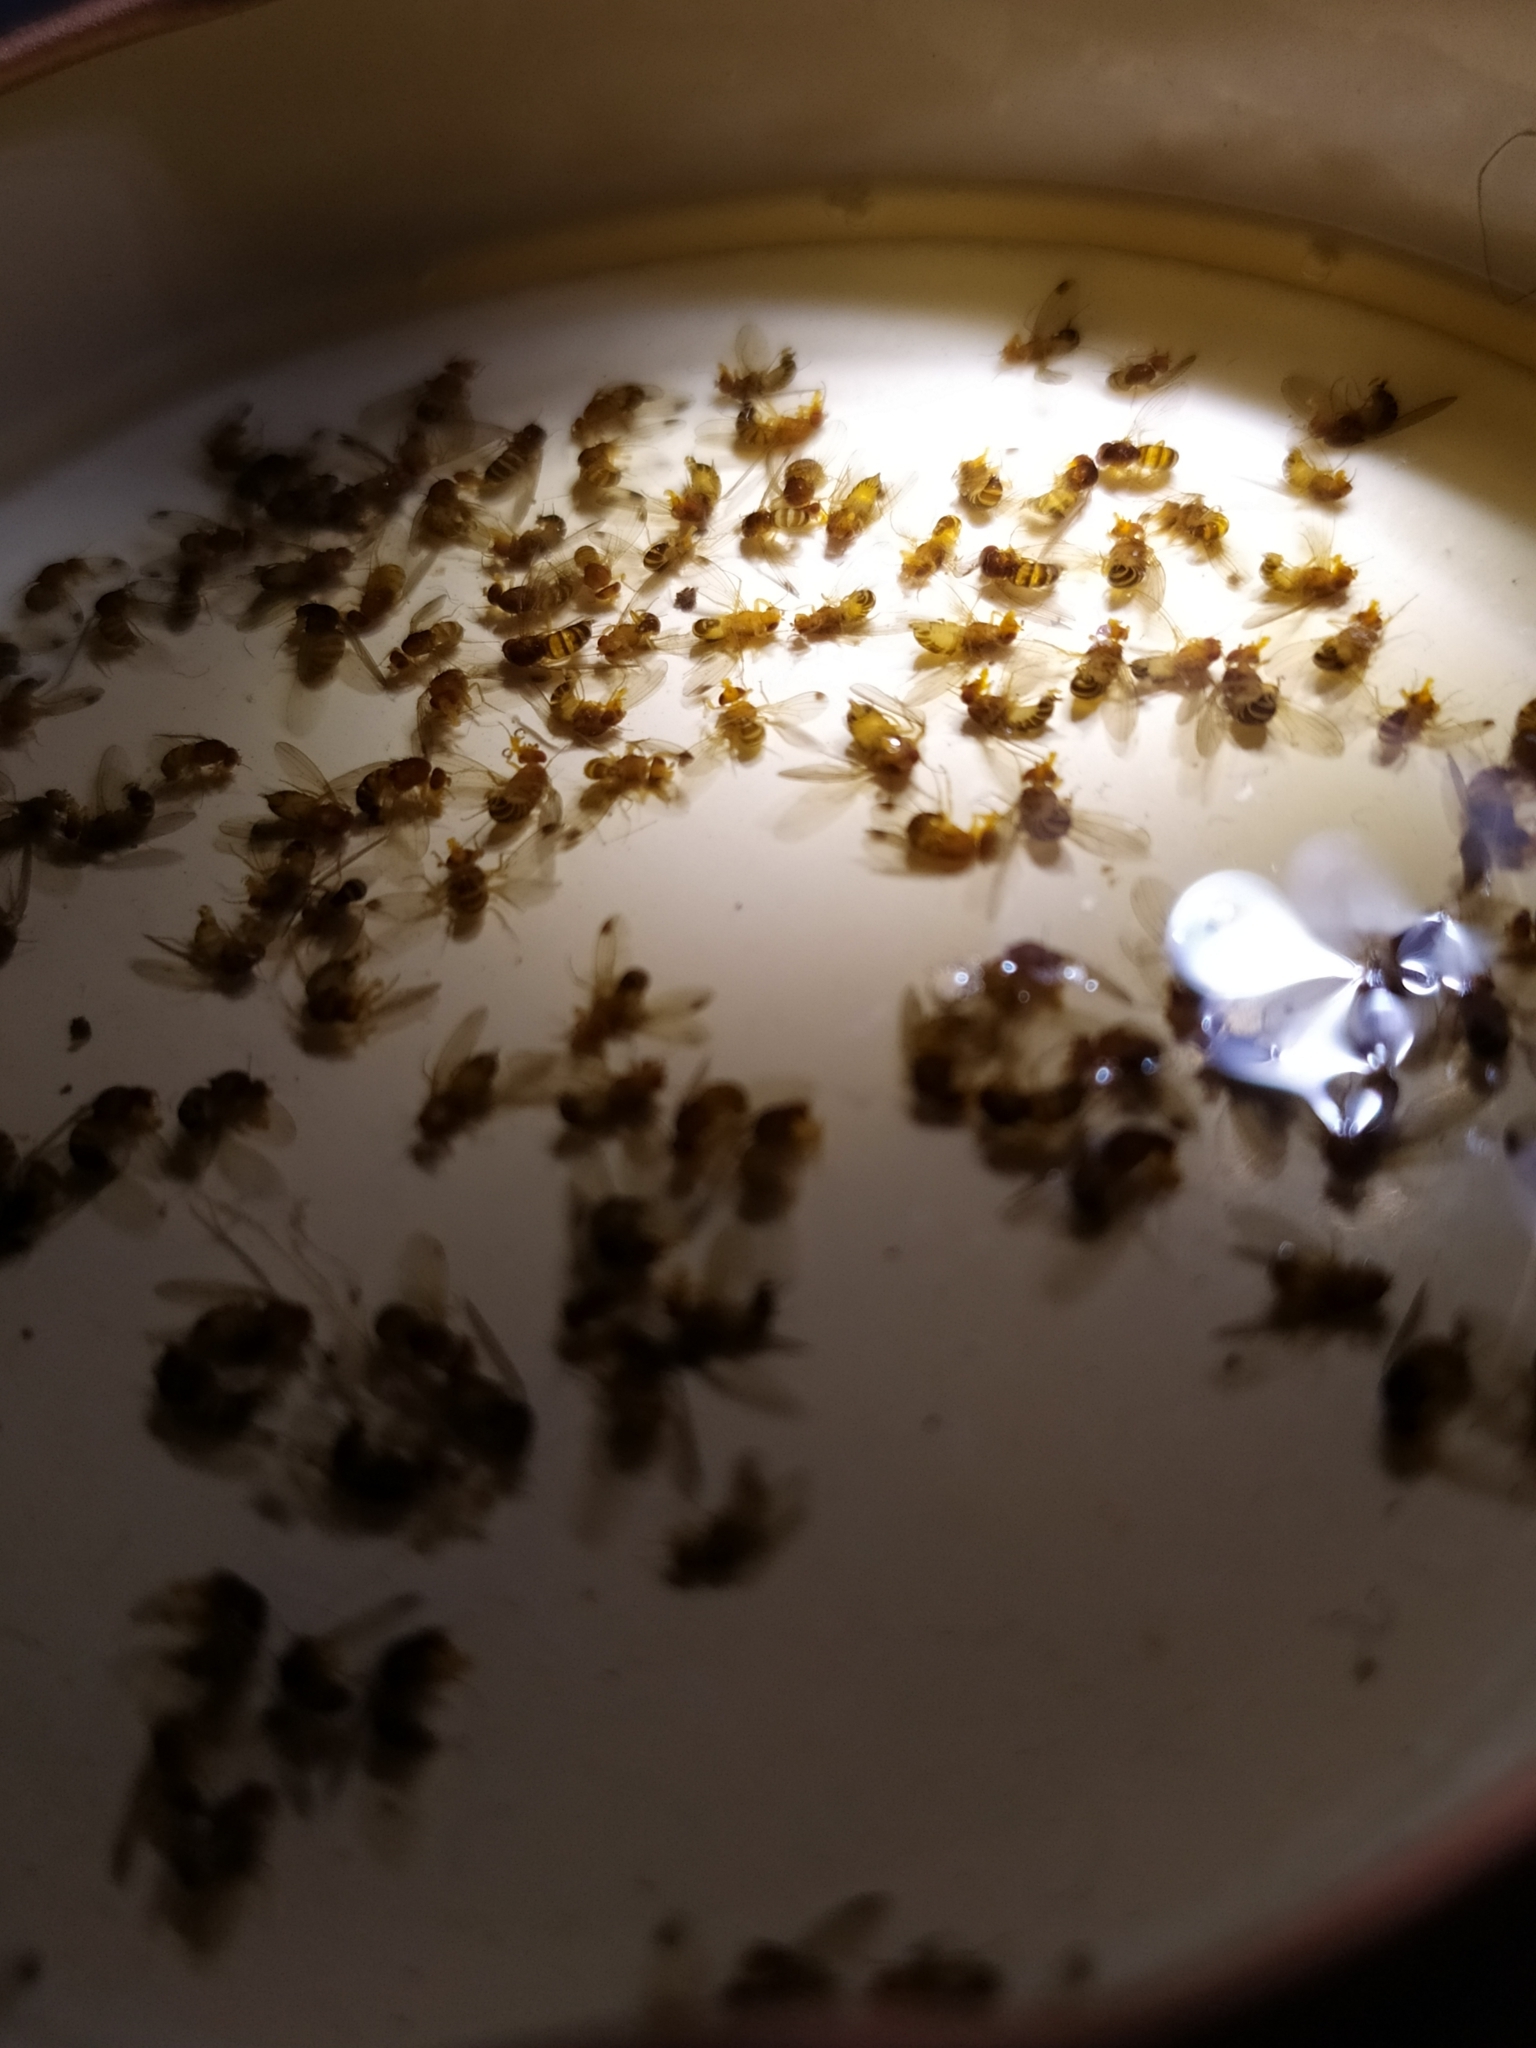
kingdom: Animalia
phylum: Arthropoda
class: Insecta
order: Diptera
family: Drosophilidae
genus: Drosophila
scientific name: Drosophila suzukii
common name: Spotted-wing drosophila
